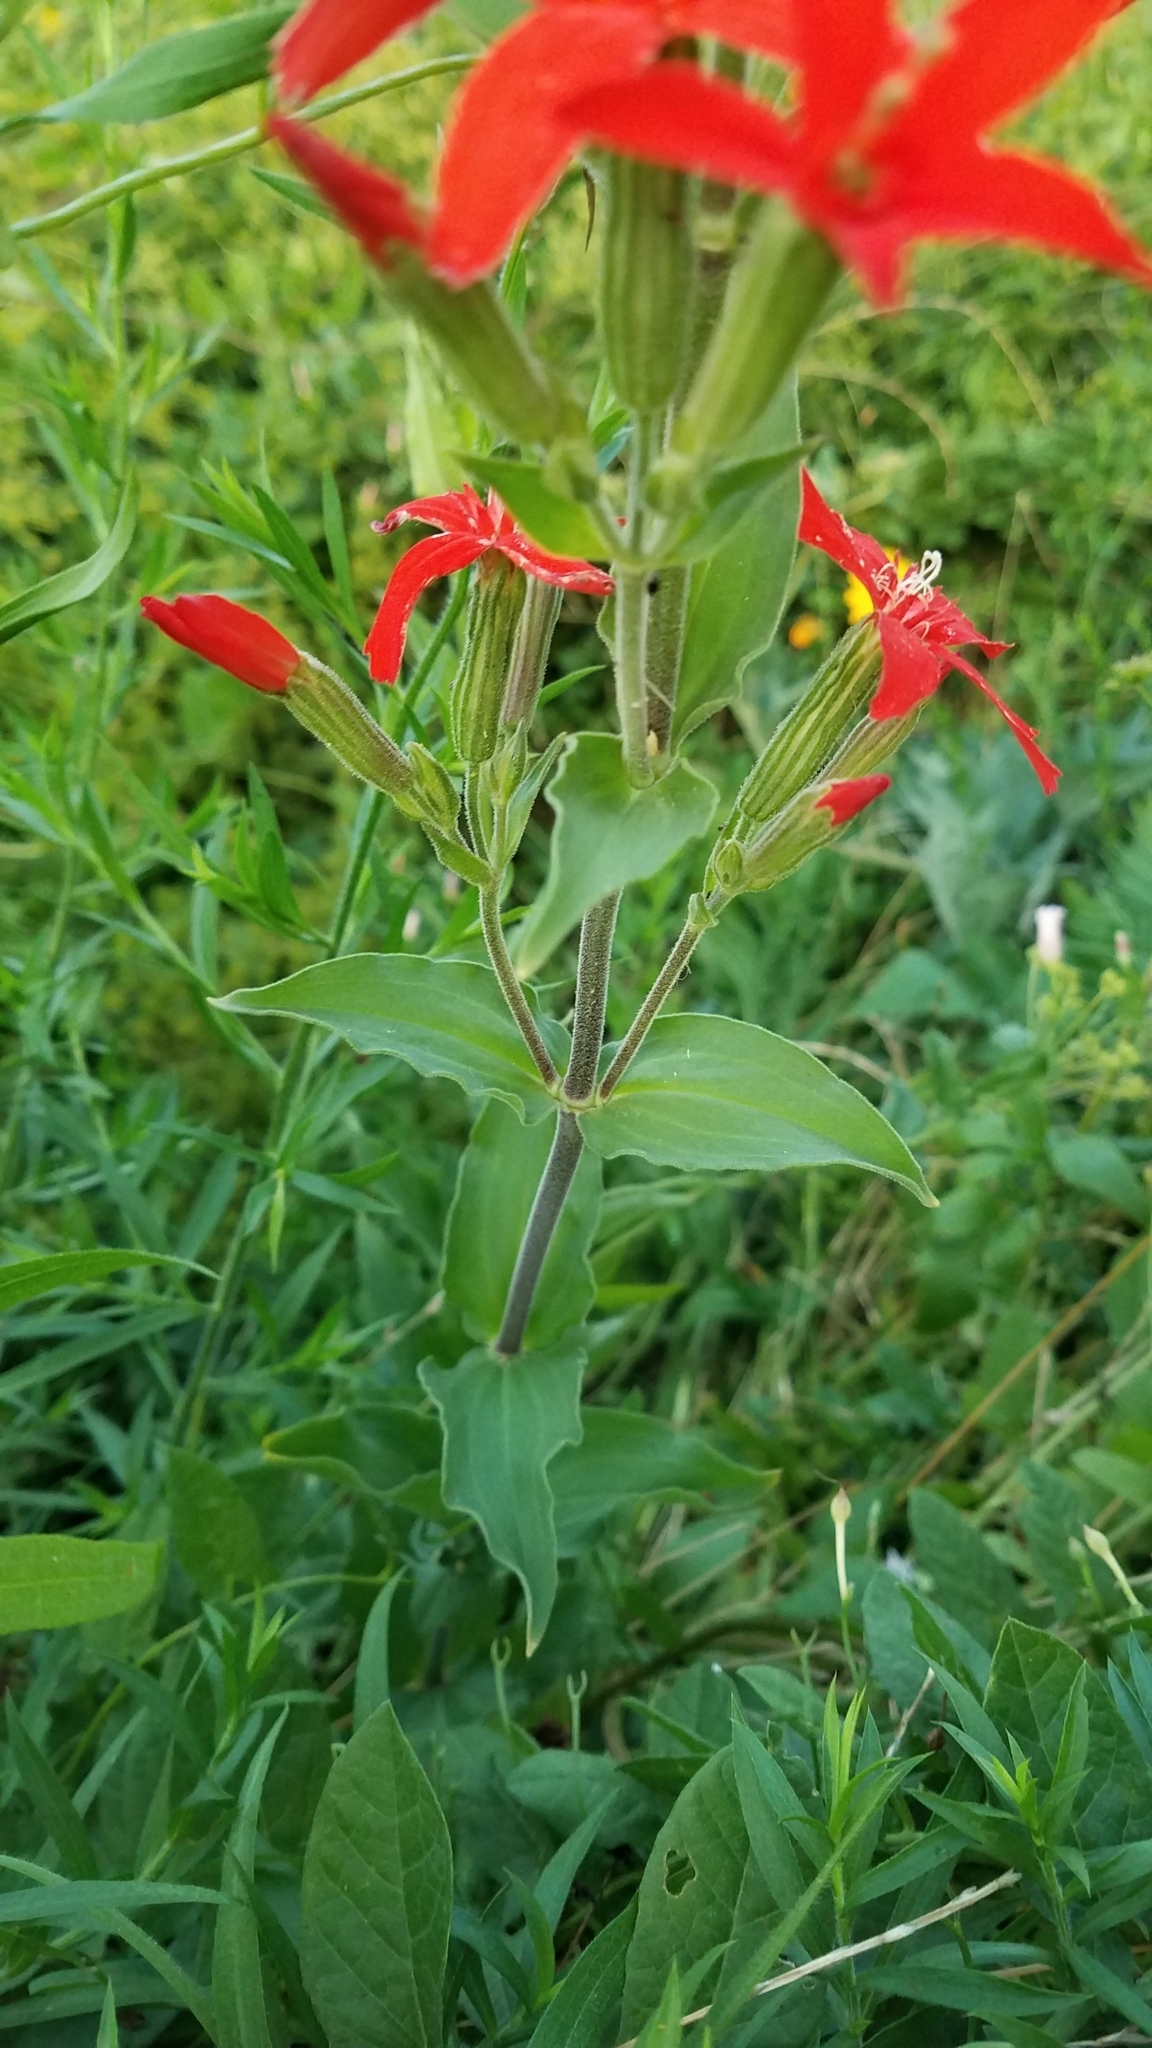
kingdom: Plantae
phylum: Tracheophyta
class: Magnoliopsida
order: Caryophyllales
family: Caryophyllaceae
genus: Silene
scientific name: Silene regia
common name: Royal catchfly
